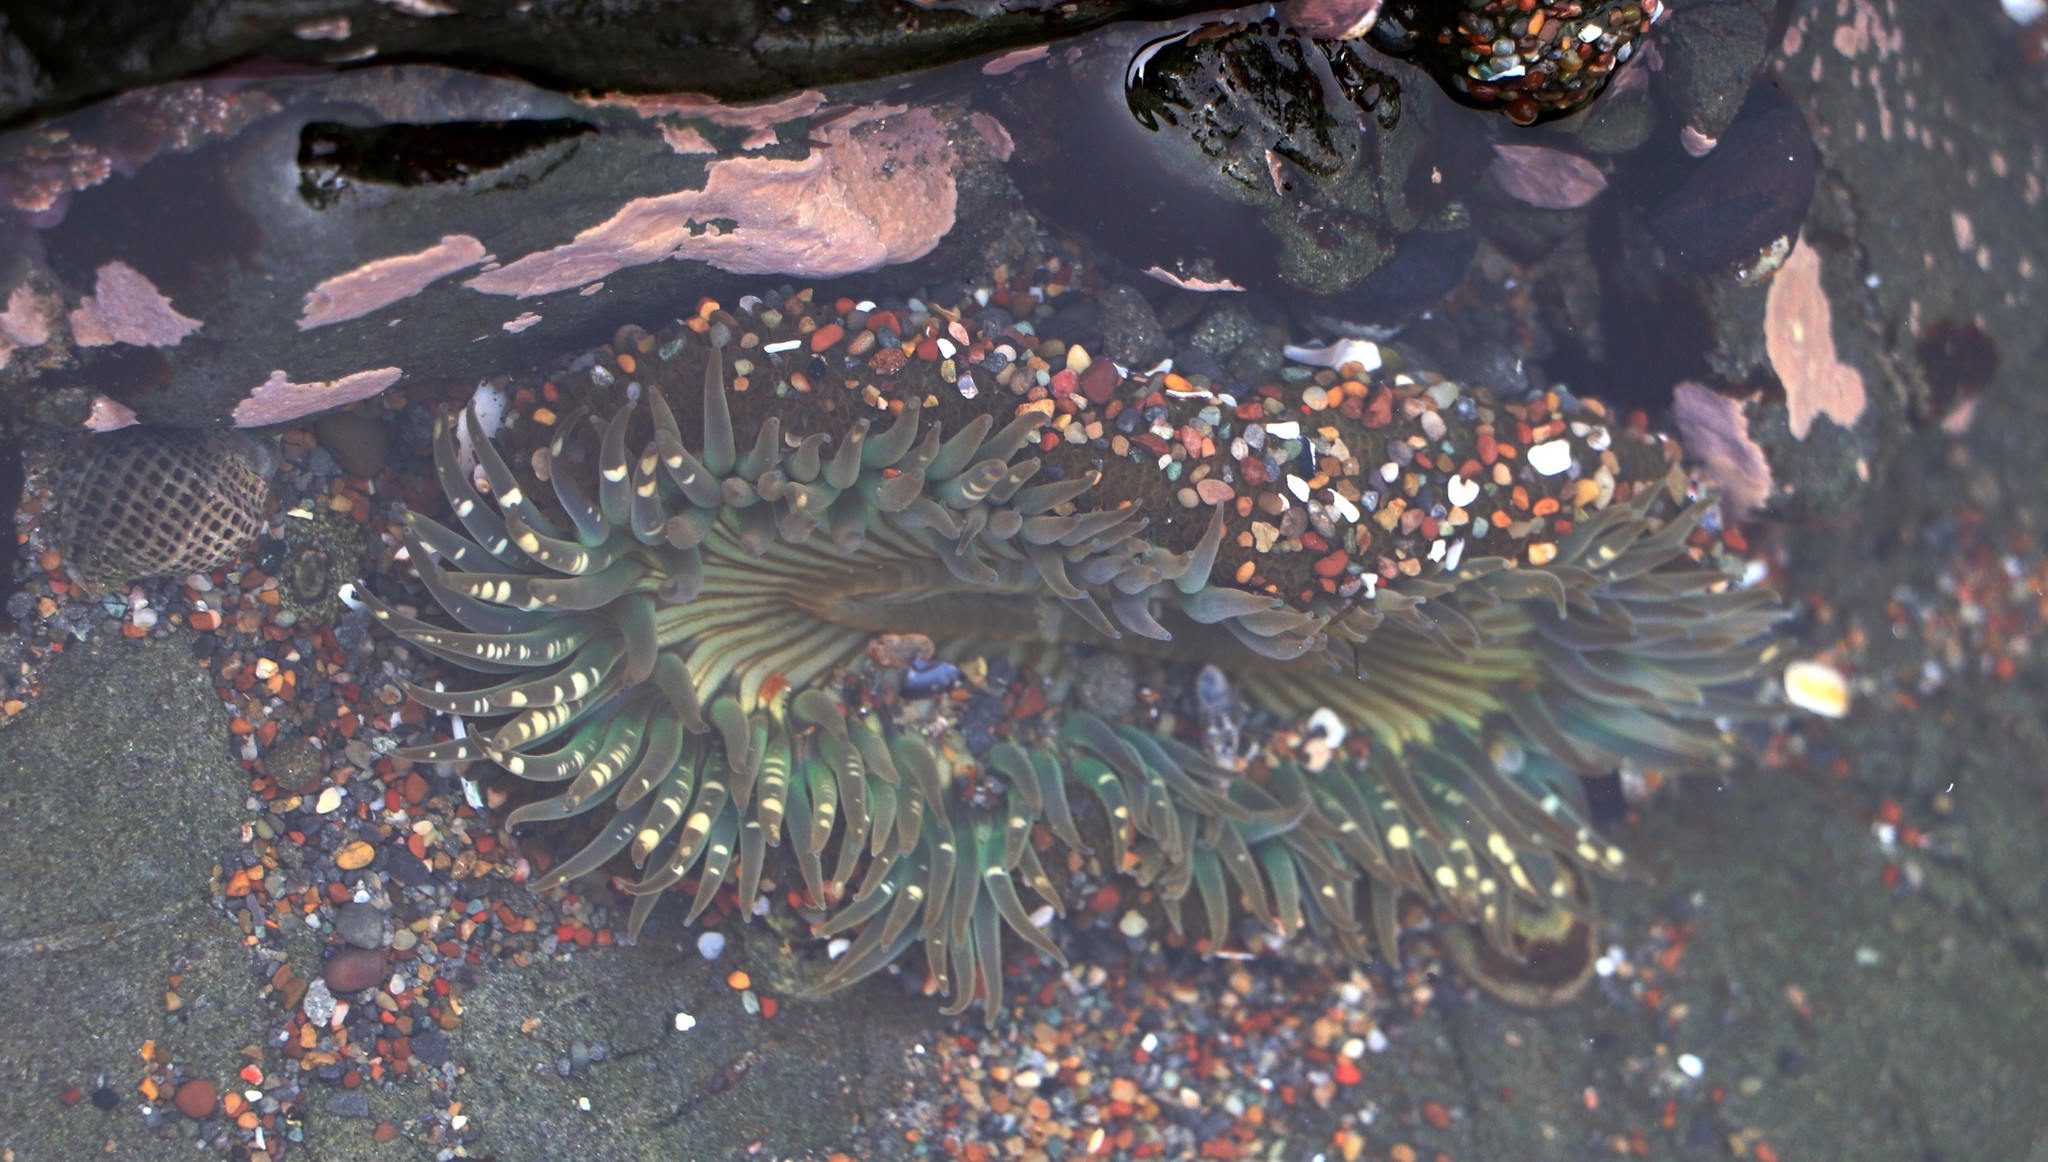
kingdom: Animalia
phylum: Cnidaria
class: Anthozoa
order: Actiniaria
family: Actiniidae
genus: Anthopleura
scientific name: Anthopleura sola
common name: Sun anemone
